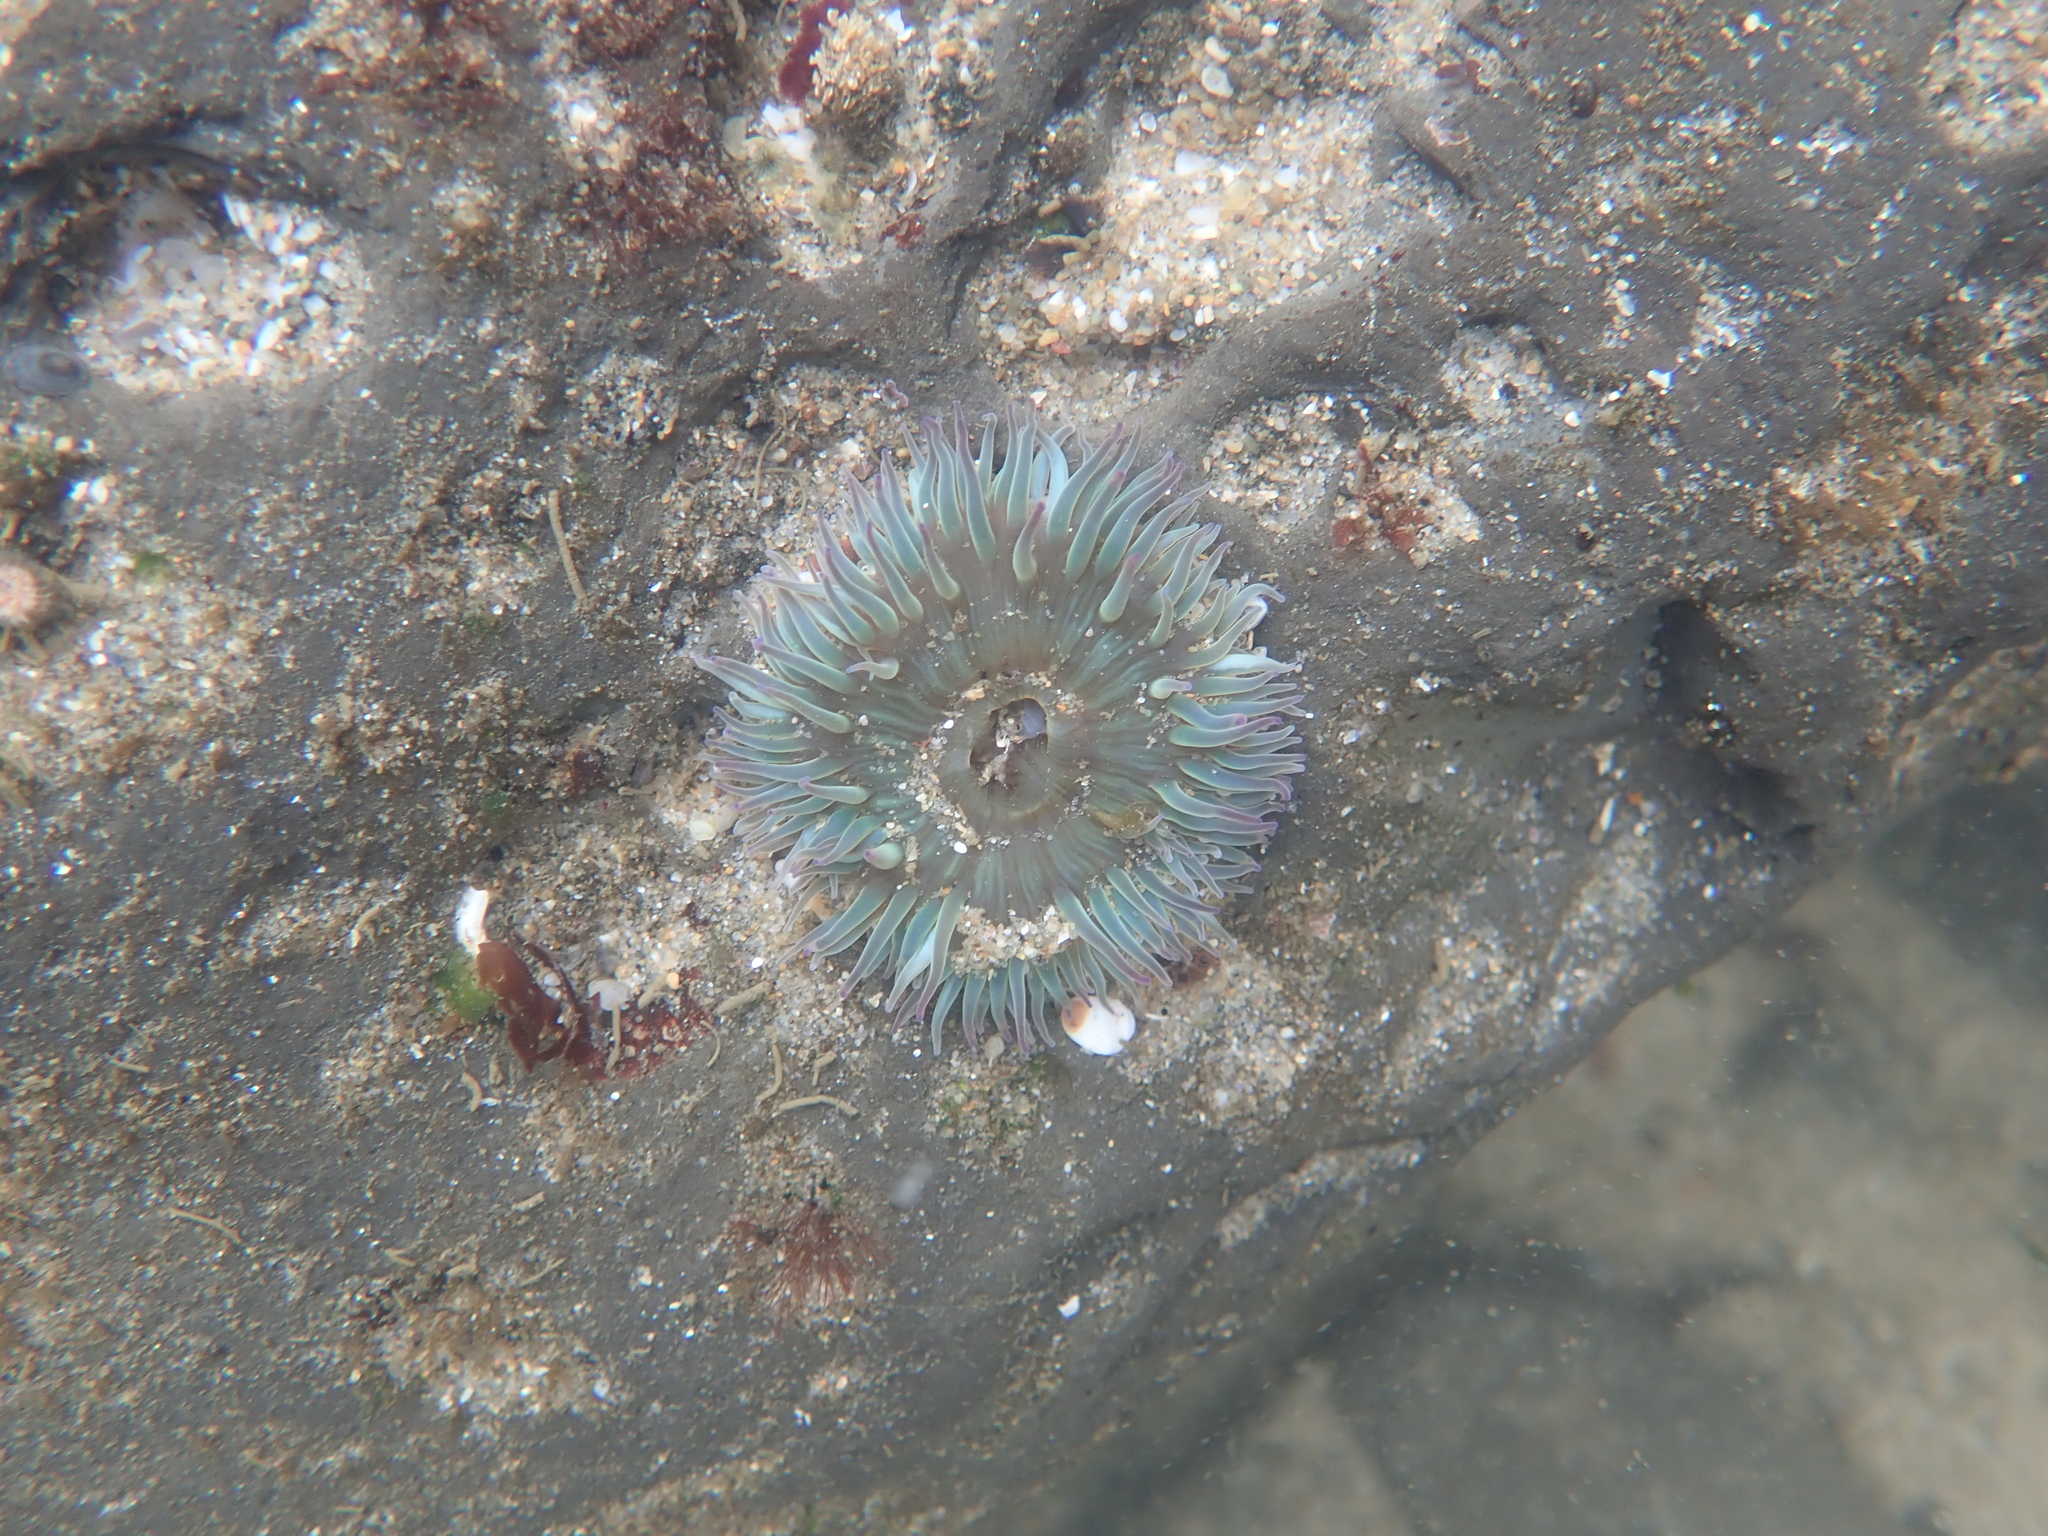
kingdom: Animalia
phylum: Cnidaria
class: Anthozoa
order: Actiniaria
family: Actiniidae
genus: Anthopleura
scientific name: Anthopleura sola
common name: Sun anemone
